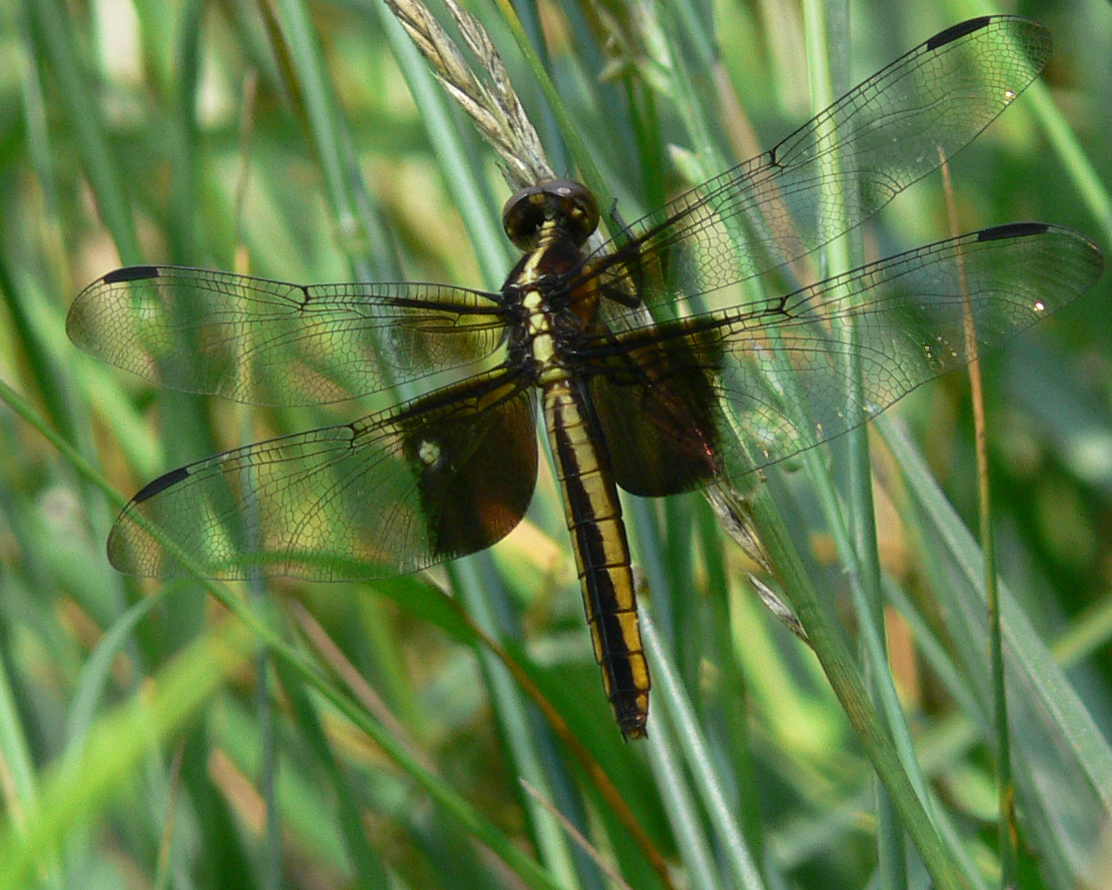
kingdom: Animalia
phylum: Arthropoda
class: Insecta
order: Odonata
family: Libellulidae
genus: Libellula
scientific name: Libellula luctuosa
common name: Widow skimmer
